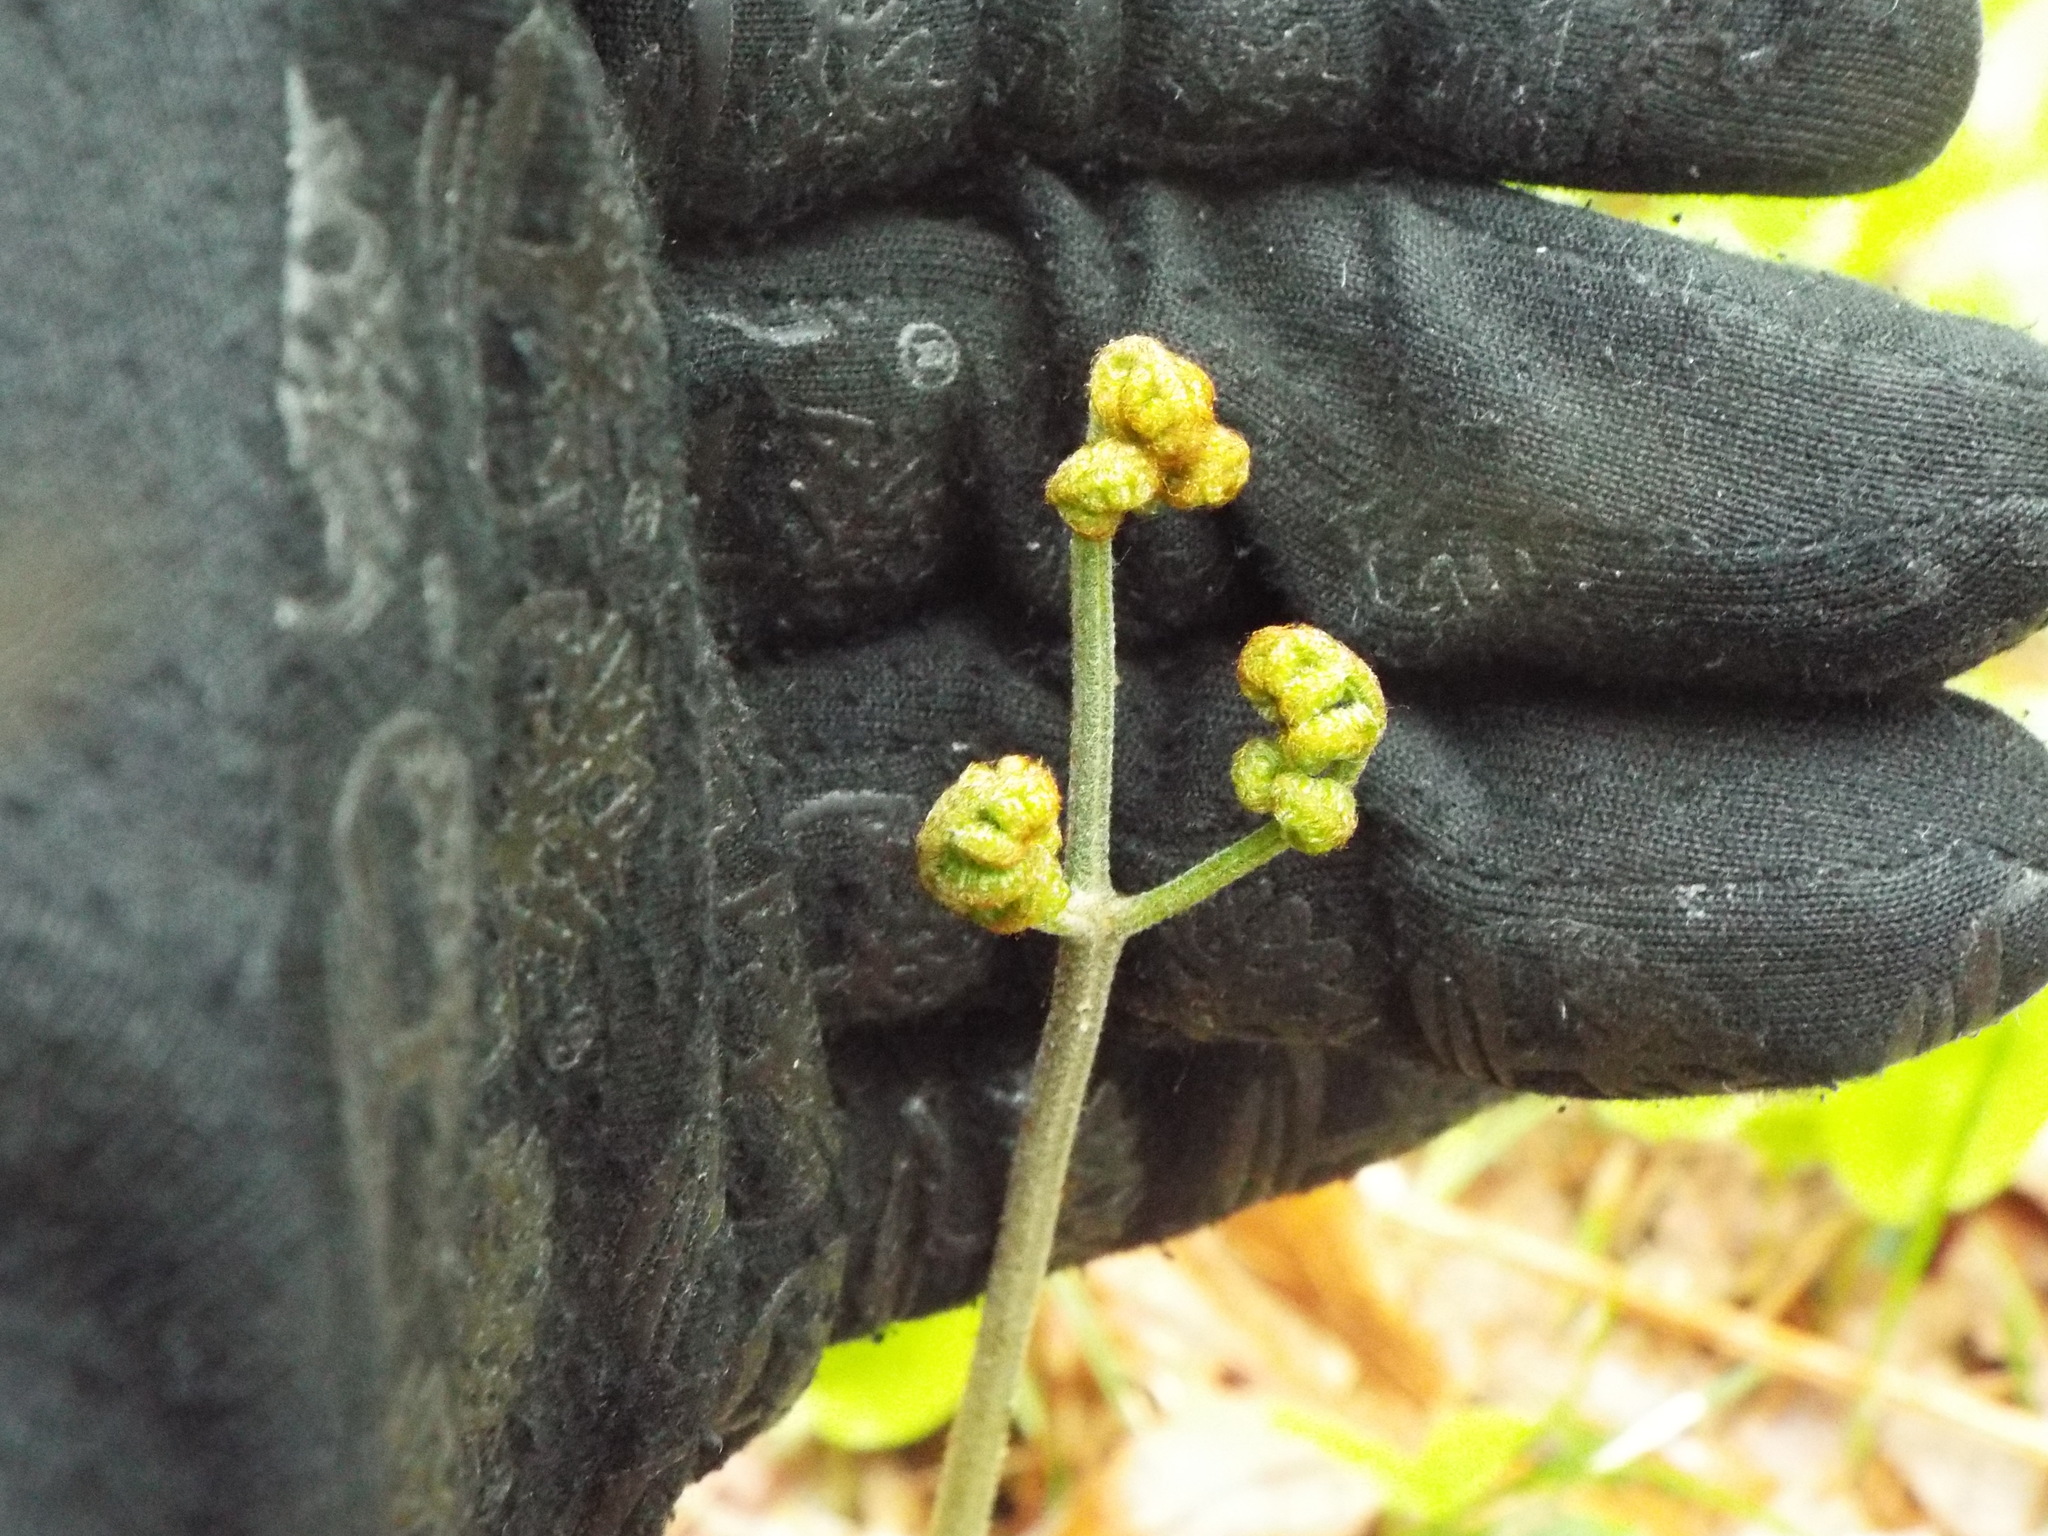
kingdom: Plantae
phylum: Tracheophyta
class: Polypodiopsida
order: Polypodiales
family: Dennstaedtiaceae
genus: Pteridium
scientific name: Pteridium aquilinum
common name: Bracken
